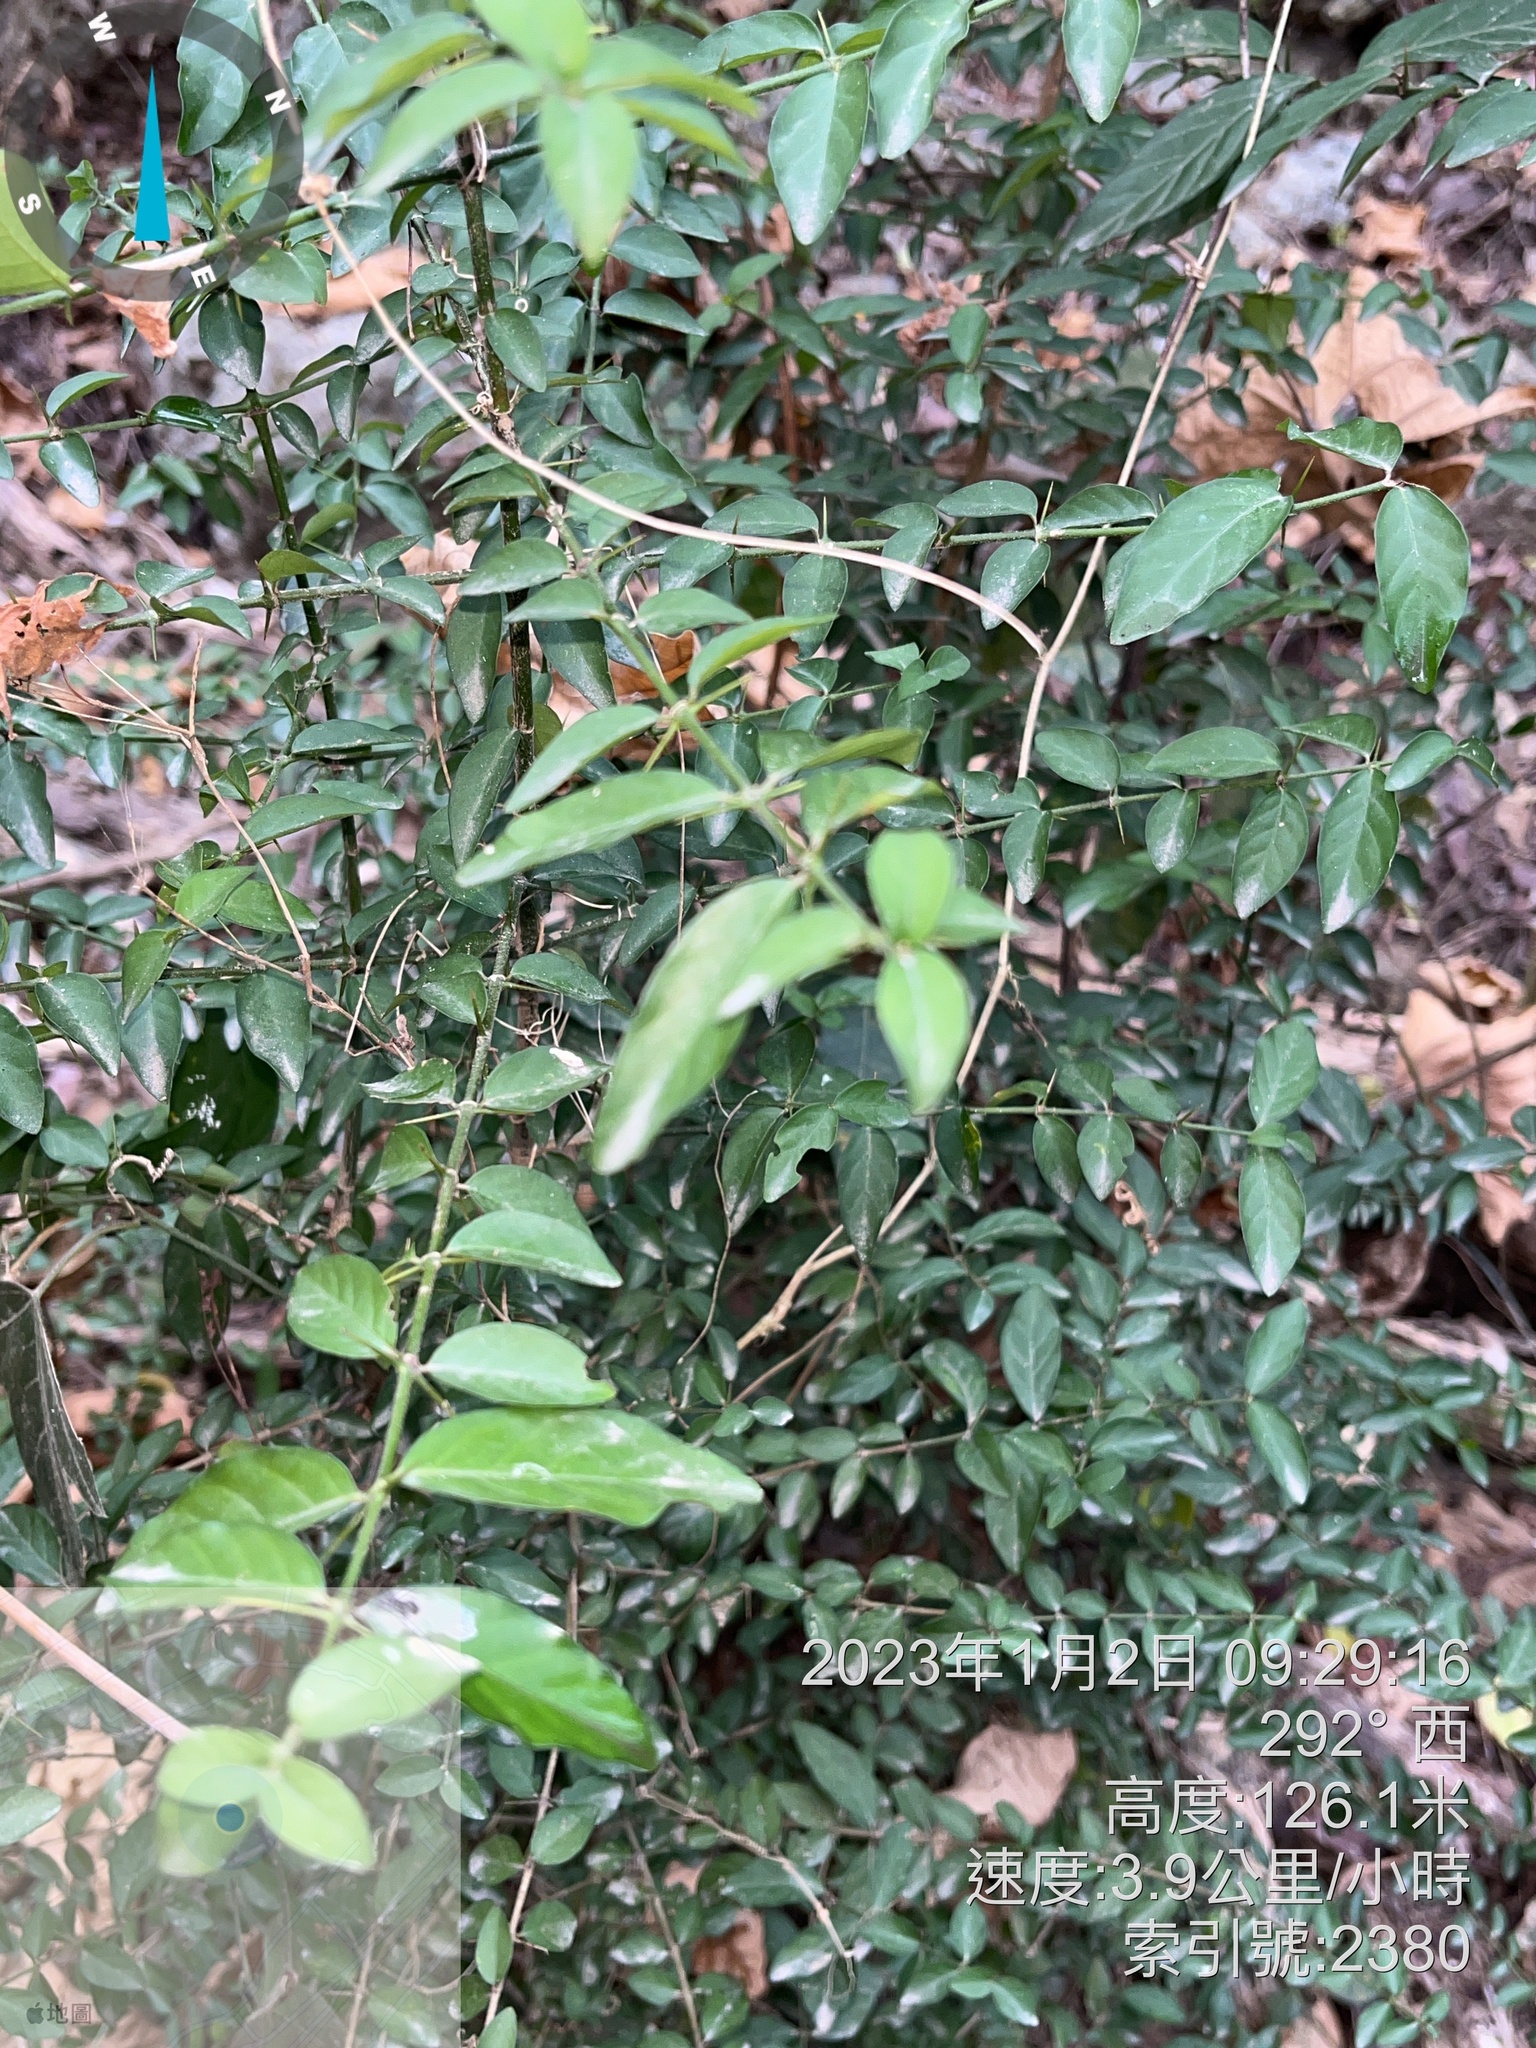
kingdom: Plantae
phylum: Tracheophyta
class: Magnoliopsida
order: Gentianales
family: Rubiaceae
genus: Benkara
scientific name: Benkara sinensis
